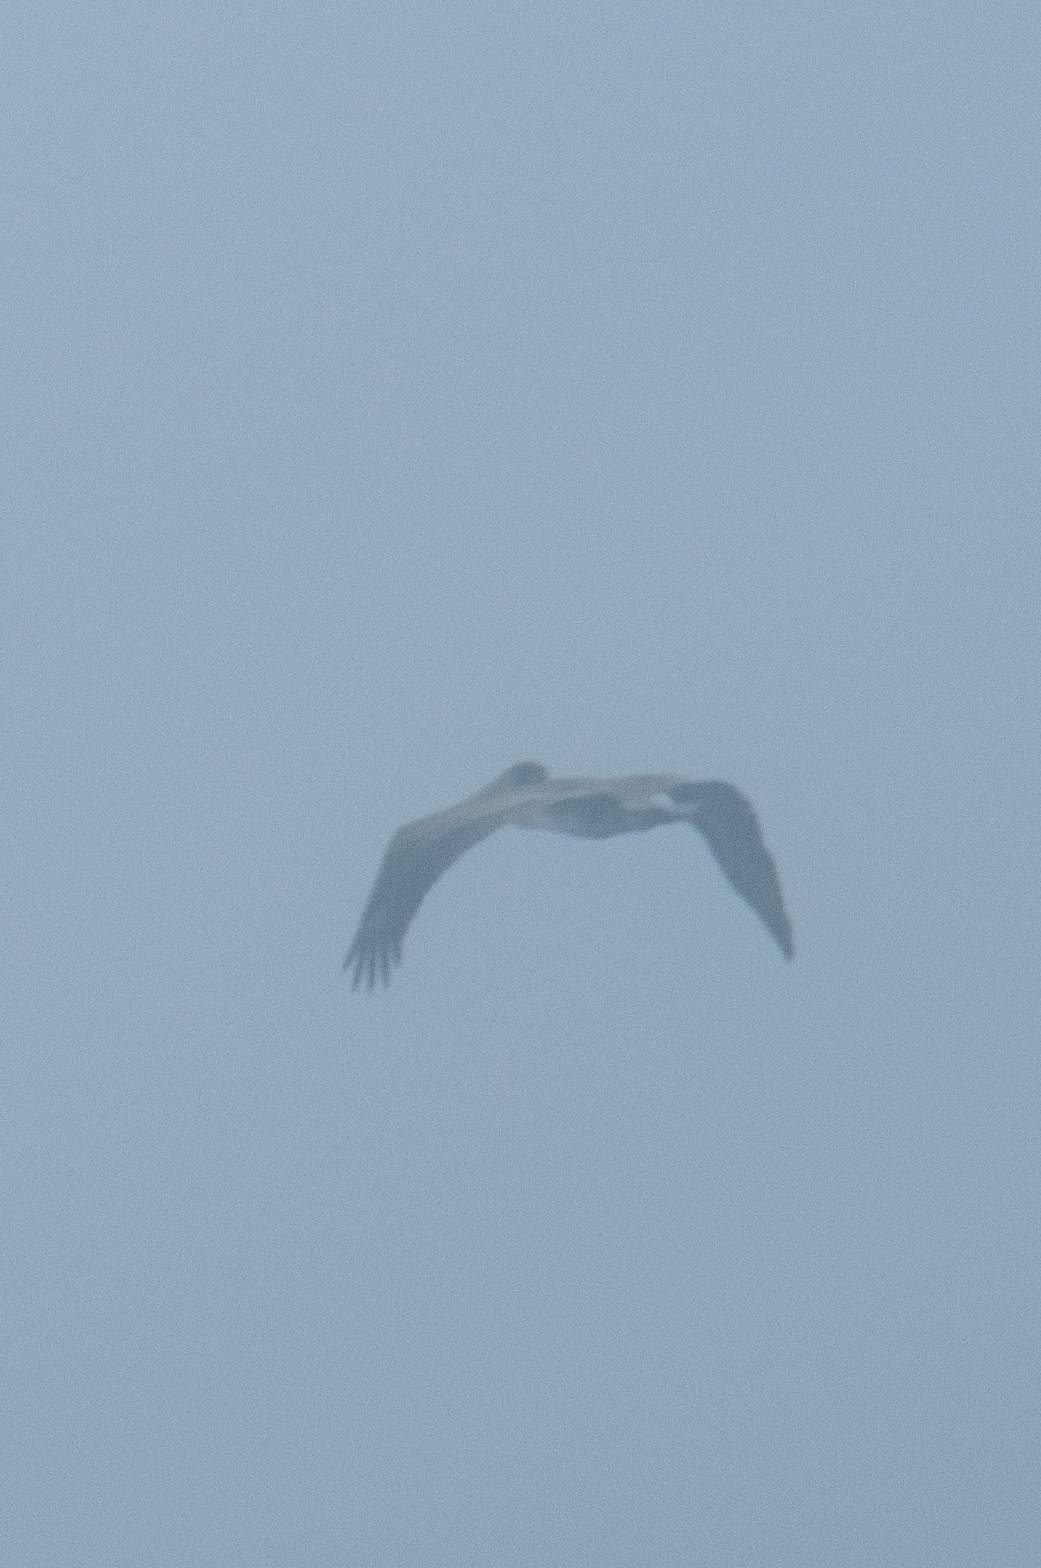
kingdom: Animalia
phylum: Chordata
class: Aves
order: Pelecaniformes
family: Pelecanidae
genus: Pelecanus
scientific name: Pelecanus occidentalis
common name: Brown pelican
